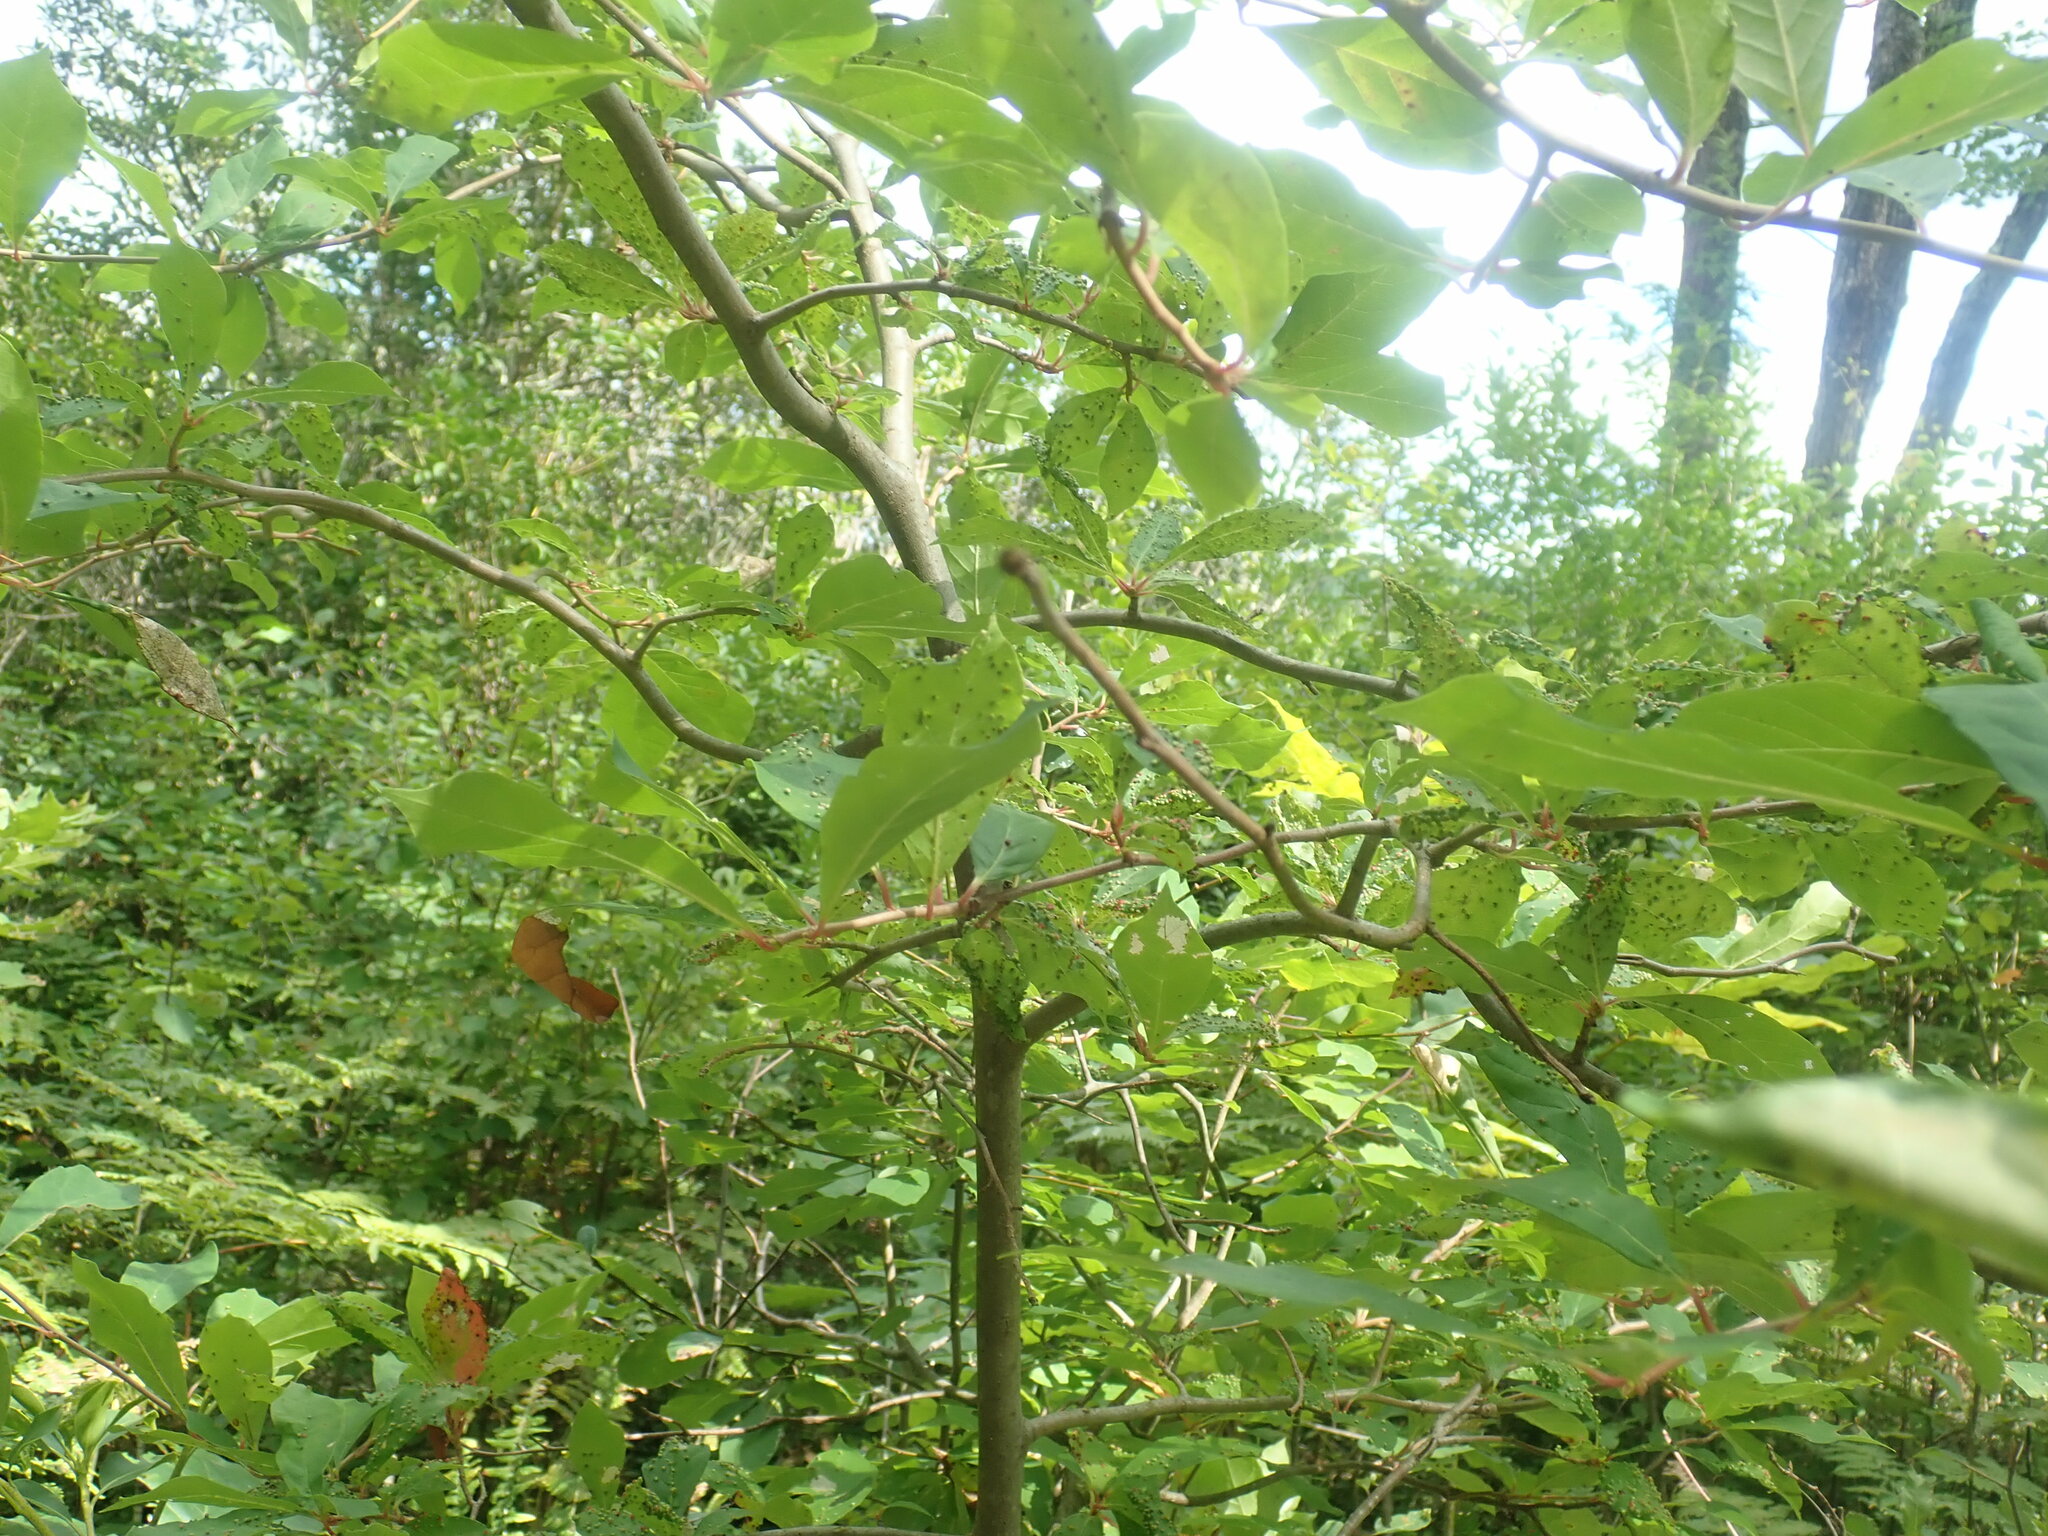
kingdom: Plantae
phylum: Tracheophyta
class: Magnoliopsida
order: Cornales
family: Nyssaceae
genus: Nyssa
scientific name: Nyssa sylvatica
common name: Black tupelo
